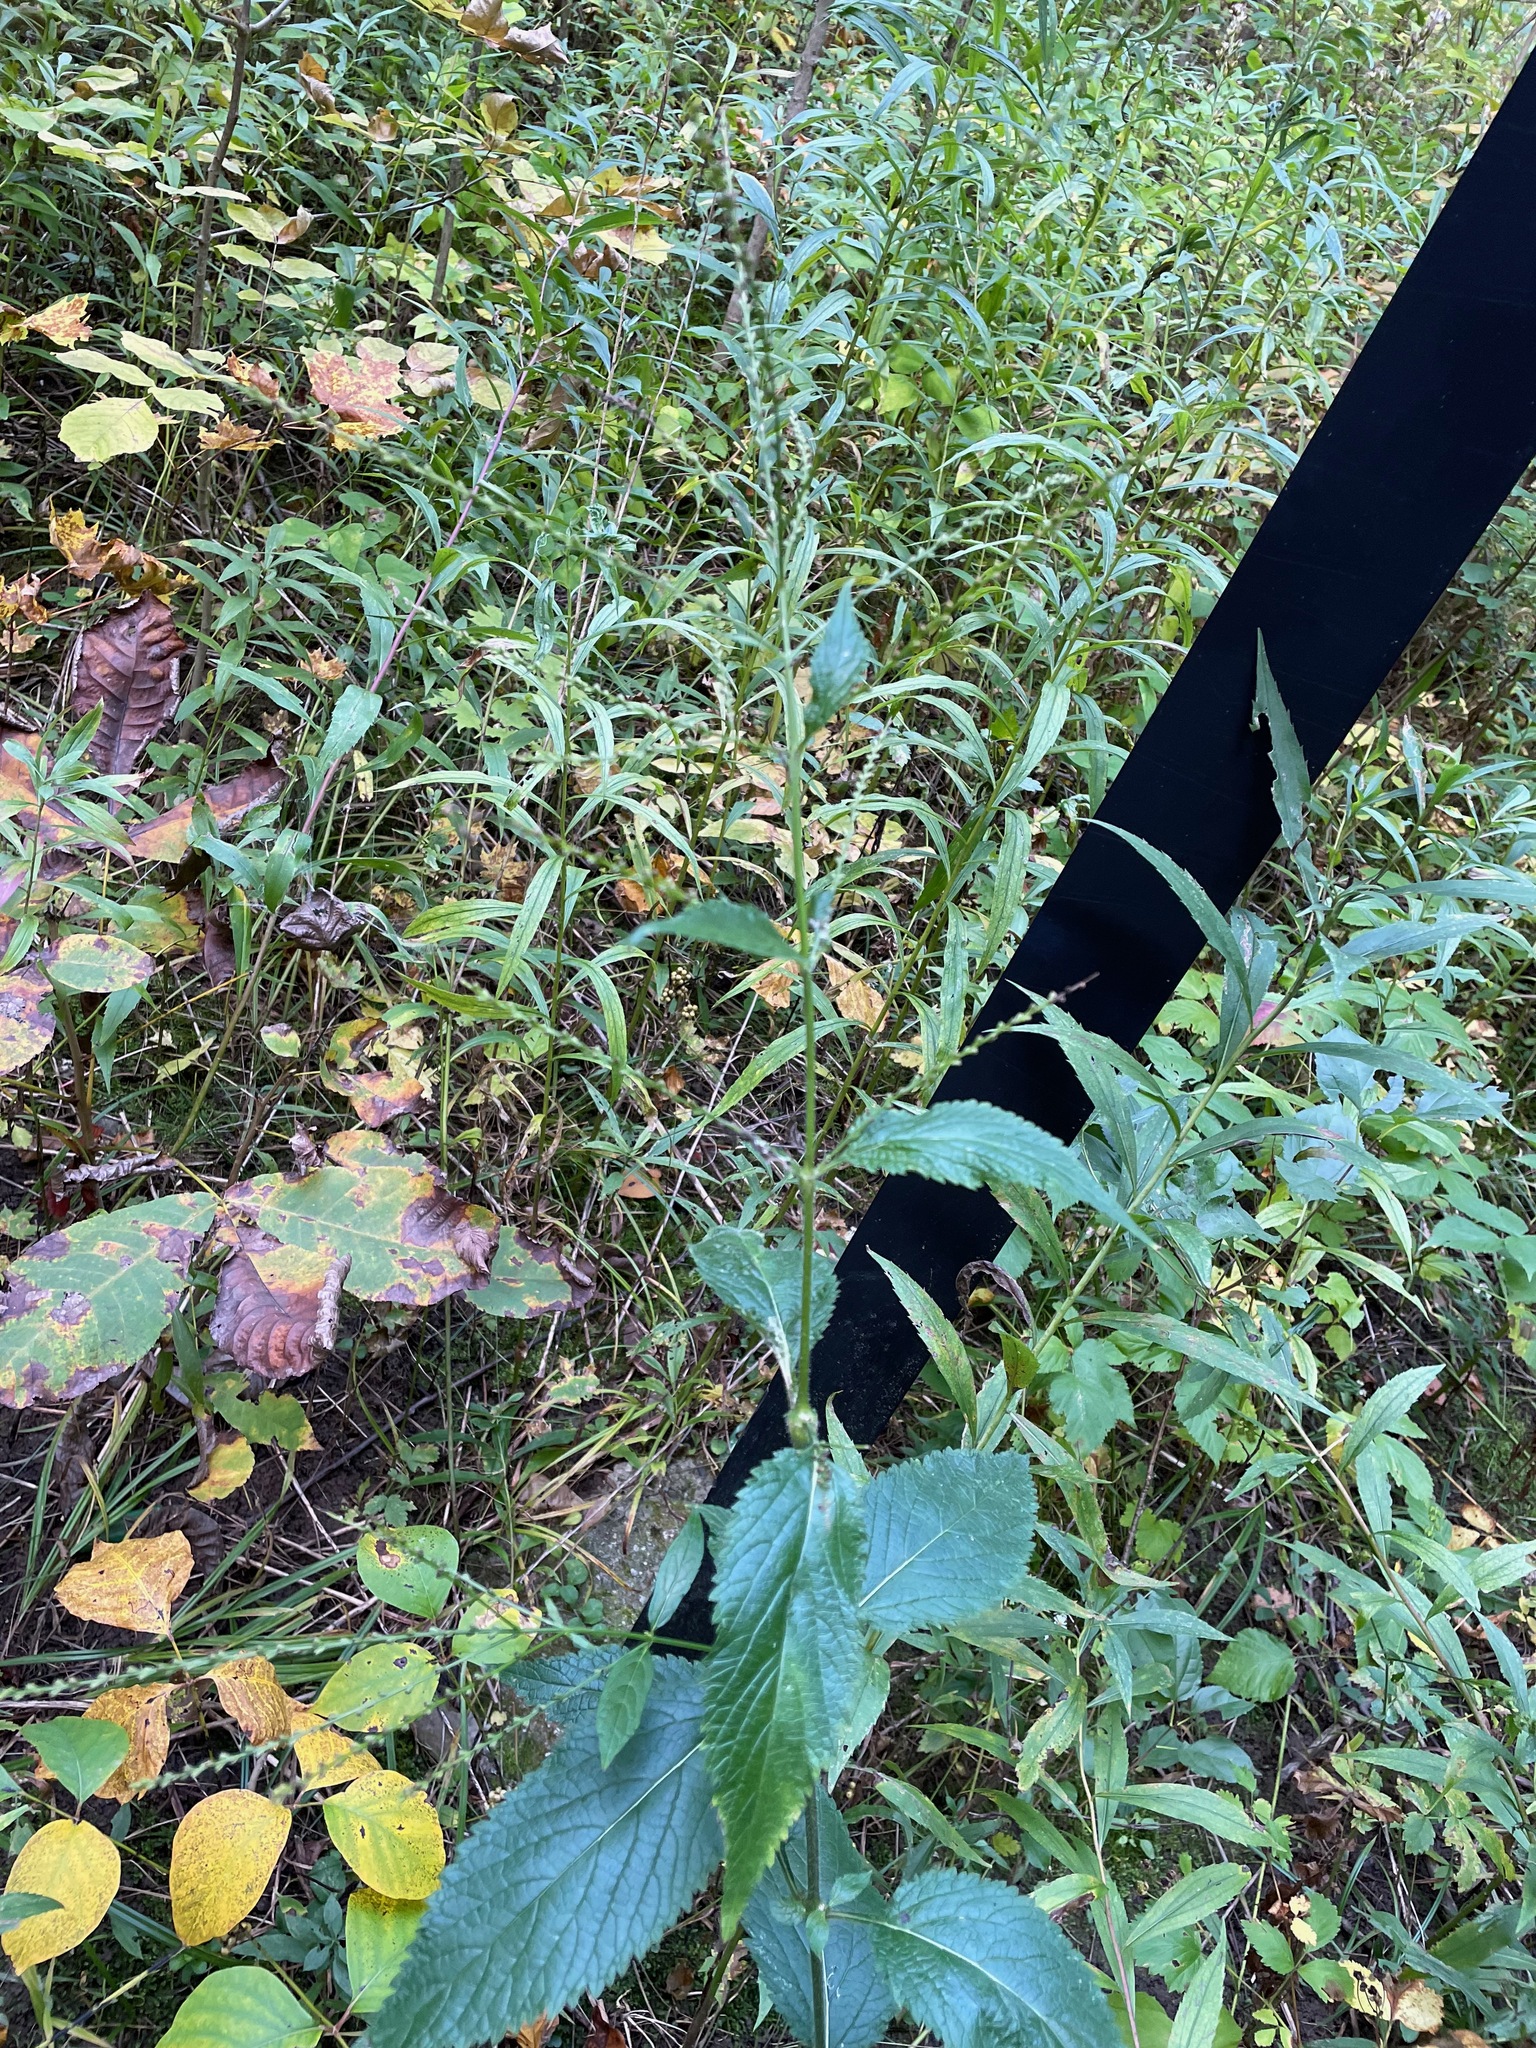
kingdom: Plantae
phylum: Tracheophyta
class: Magnoliopsida
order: Lamiales
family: Verbenaceae
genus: Verbena
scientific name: Verbena urticifolia
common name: Nettle-leaved vervain
